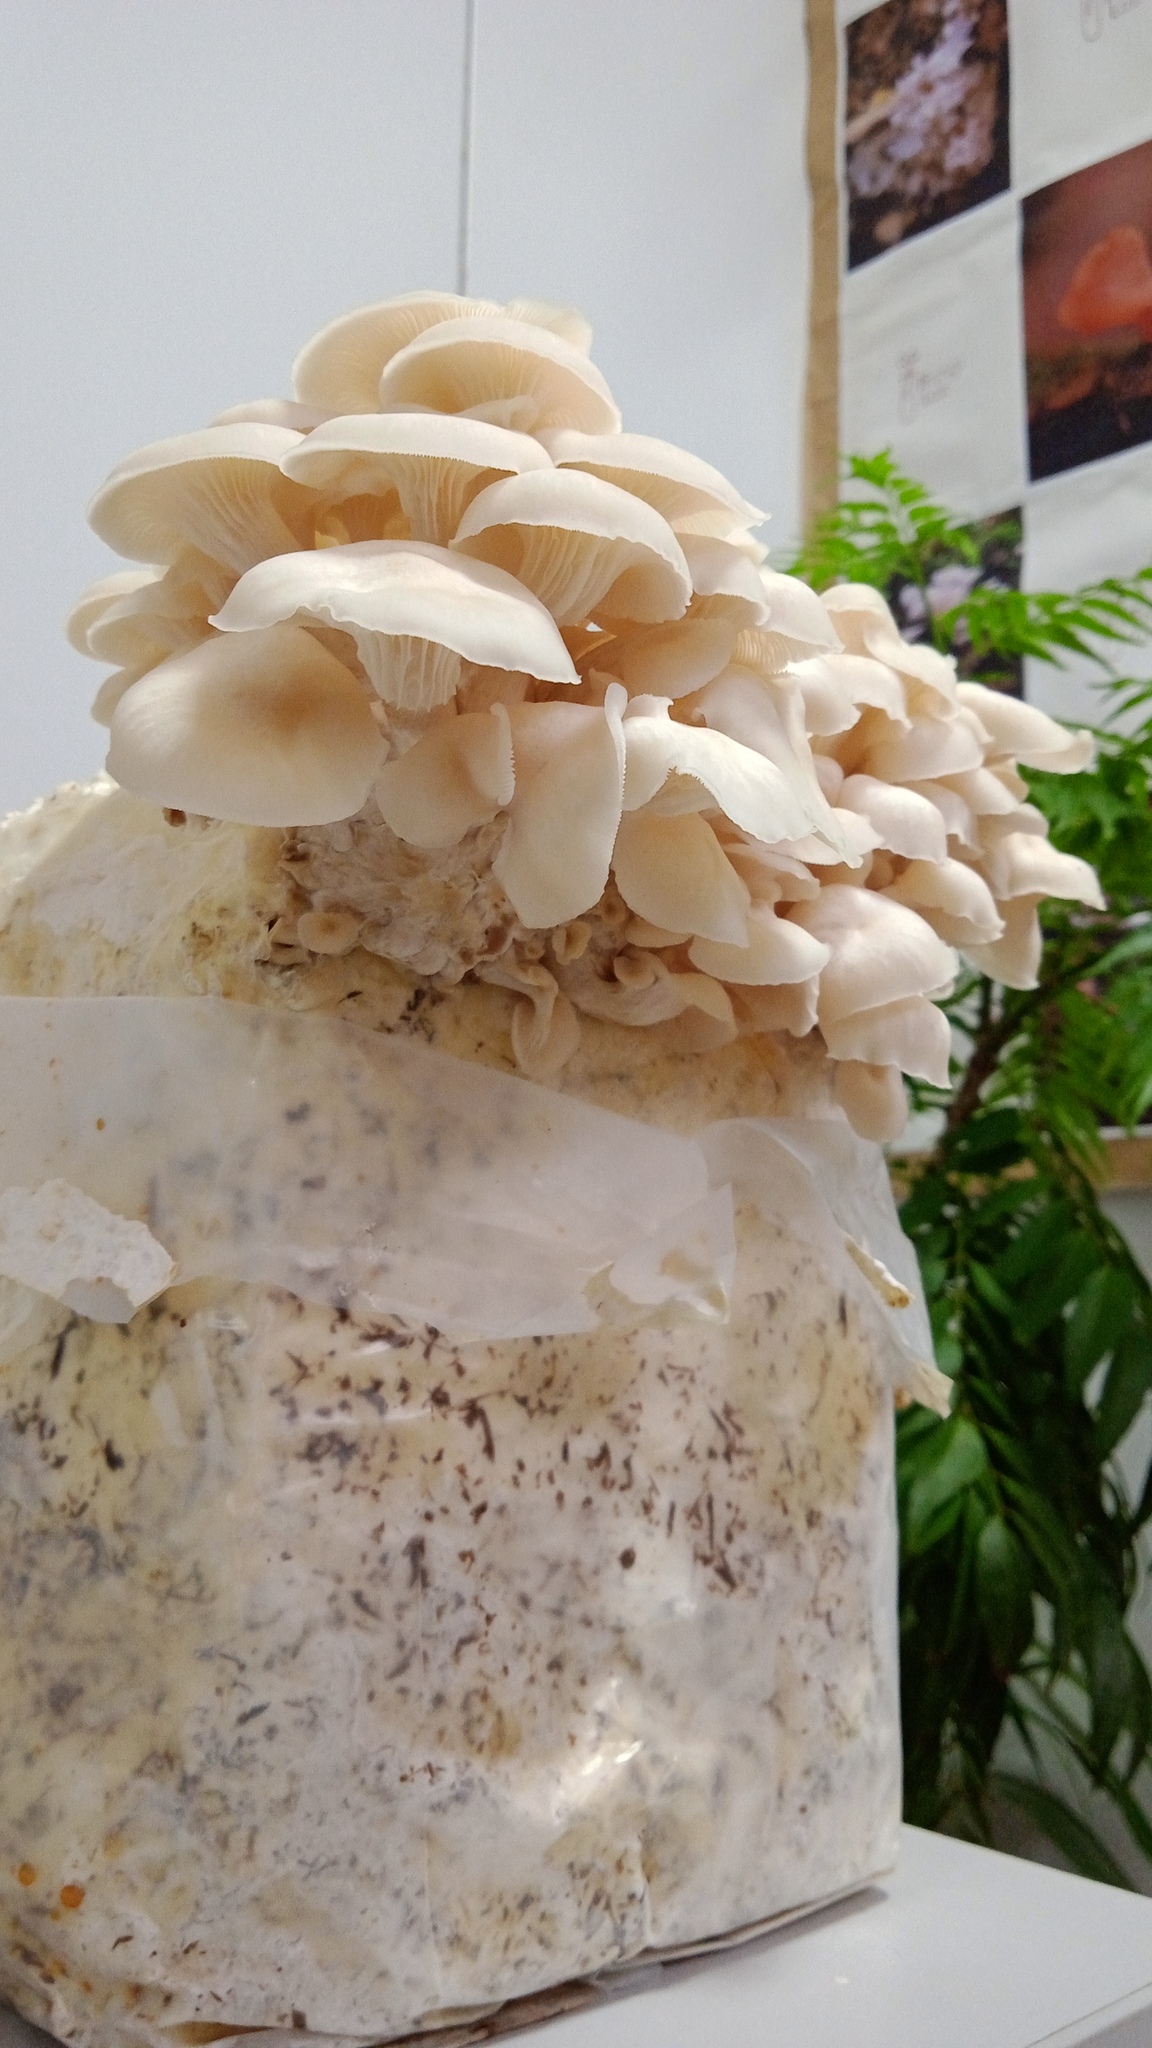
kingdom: Fungi
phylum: Basidiomycota
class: Agaricomycetes
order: Agaricales
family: Pleurotaceae
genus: Pleurotus
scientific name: Pleurotus albidus
